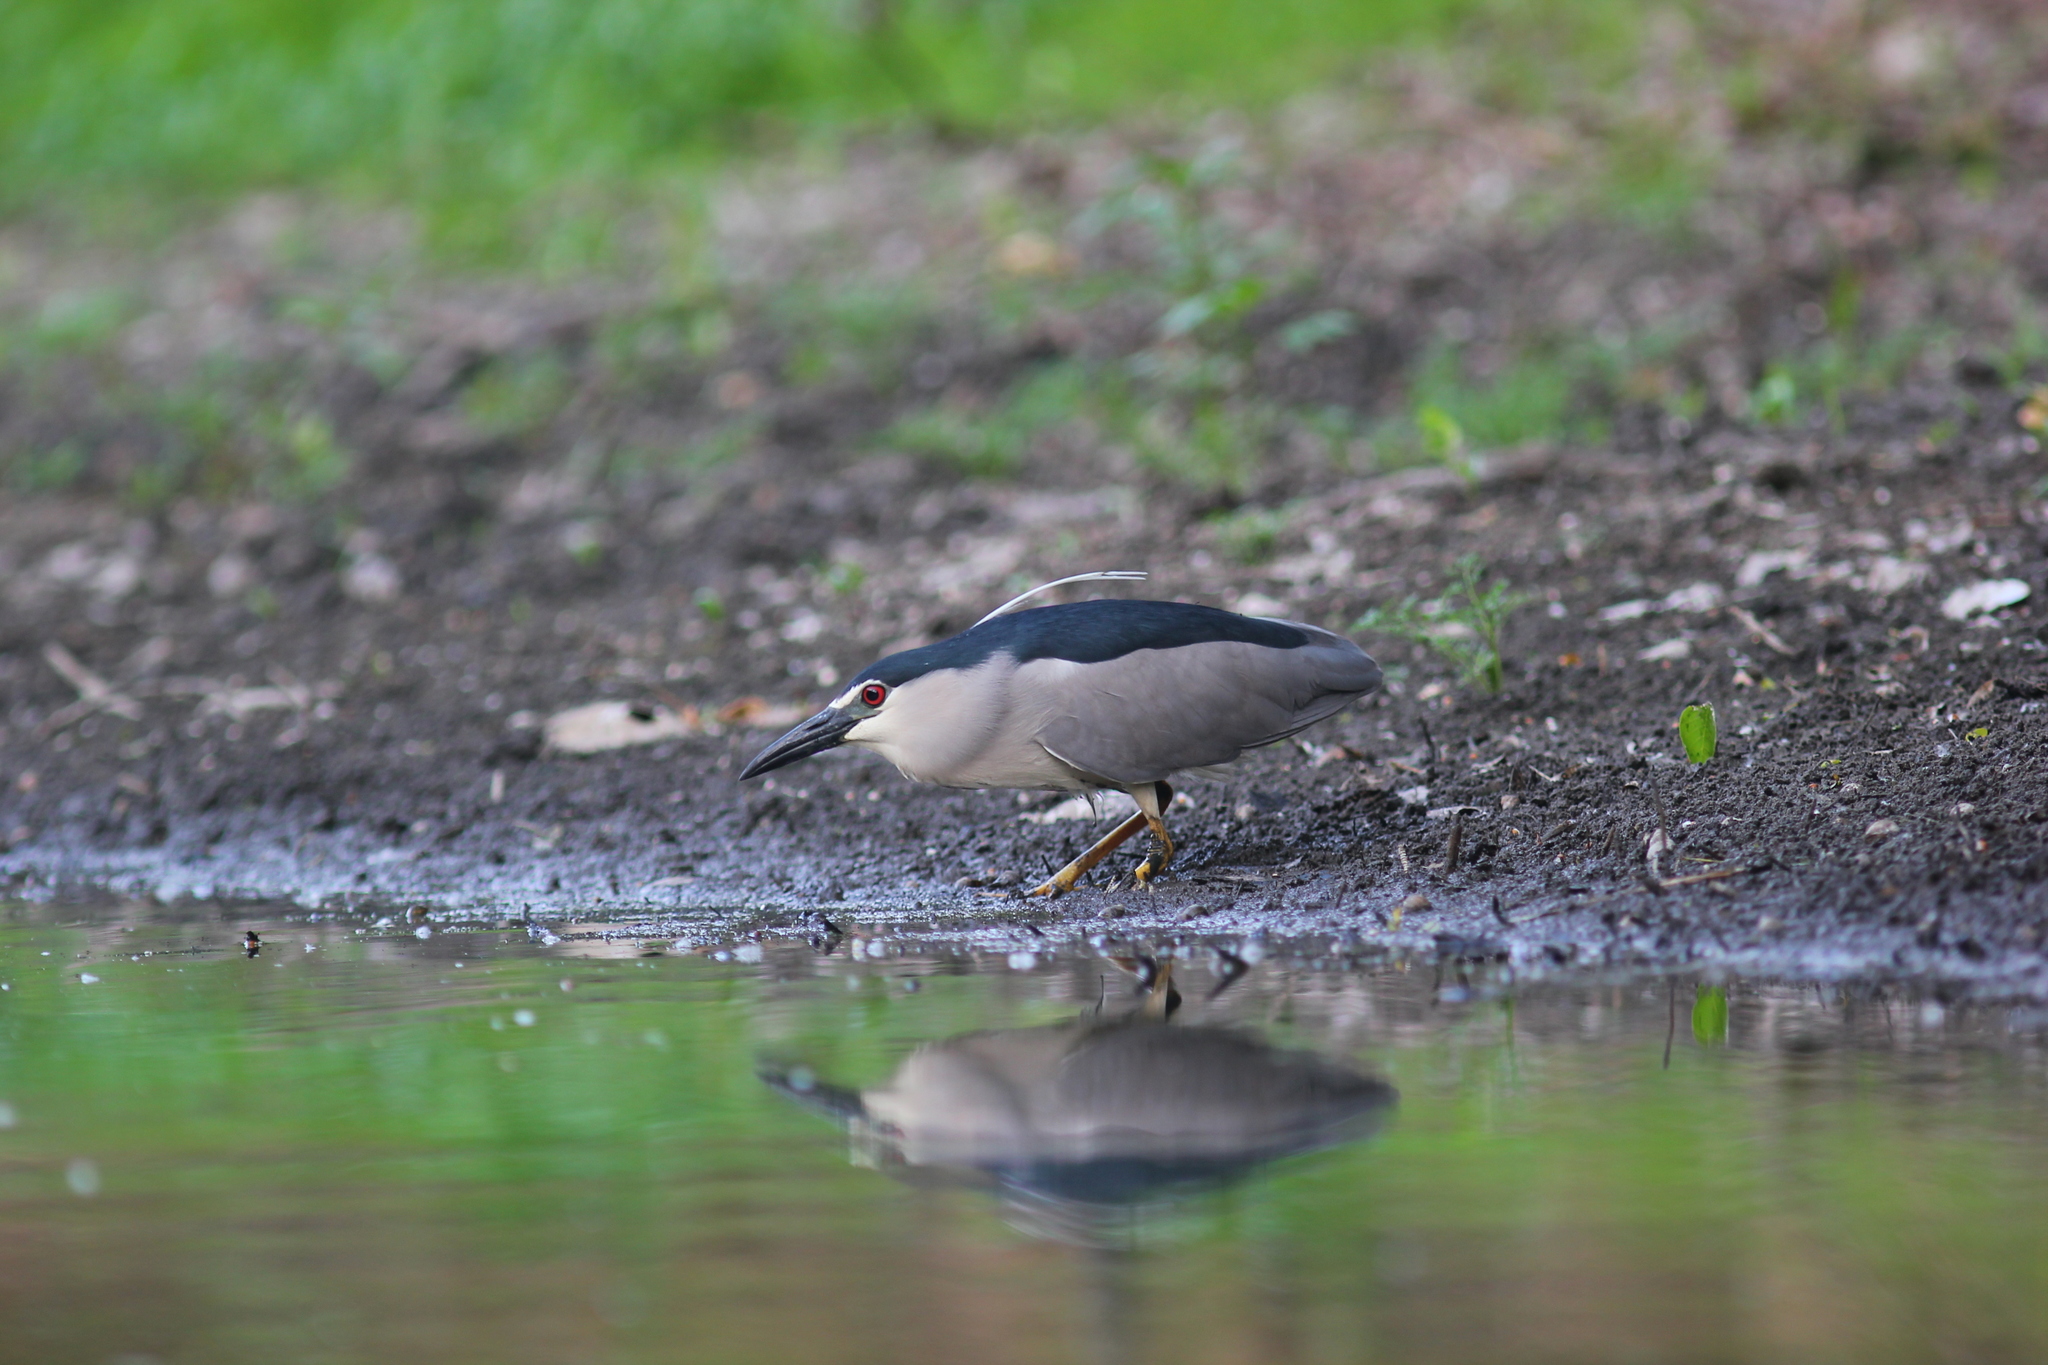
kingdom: Animalia
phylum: Chordata
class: Aves
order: Pelecaniformes
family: Ardeidae
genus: Nycticorax
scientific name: Nycticorax nycticorax
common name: Black-crowned night heron
